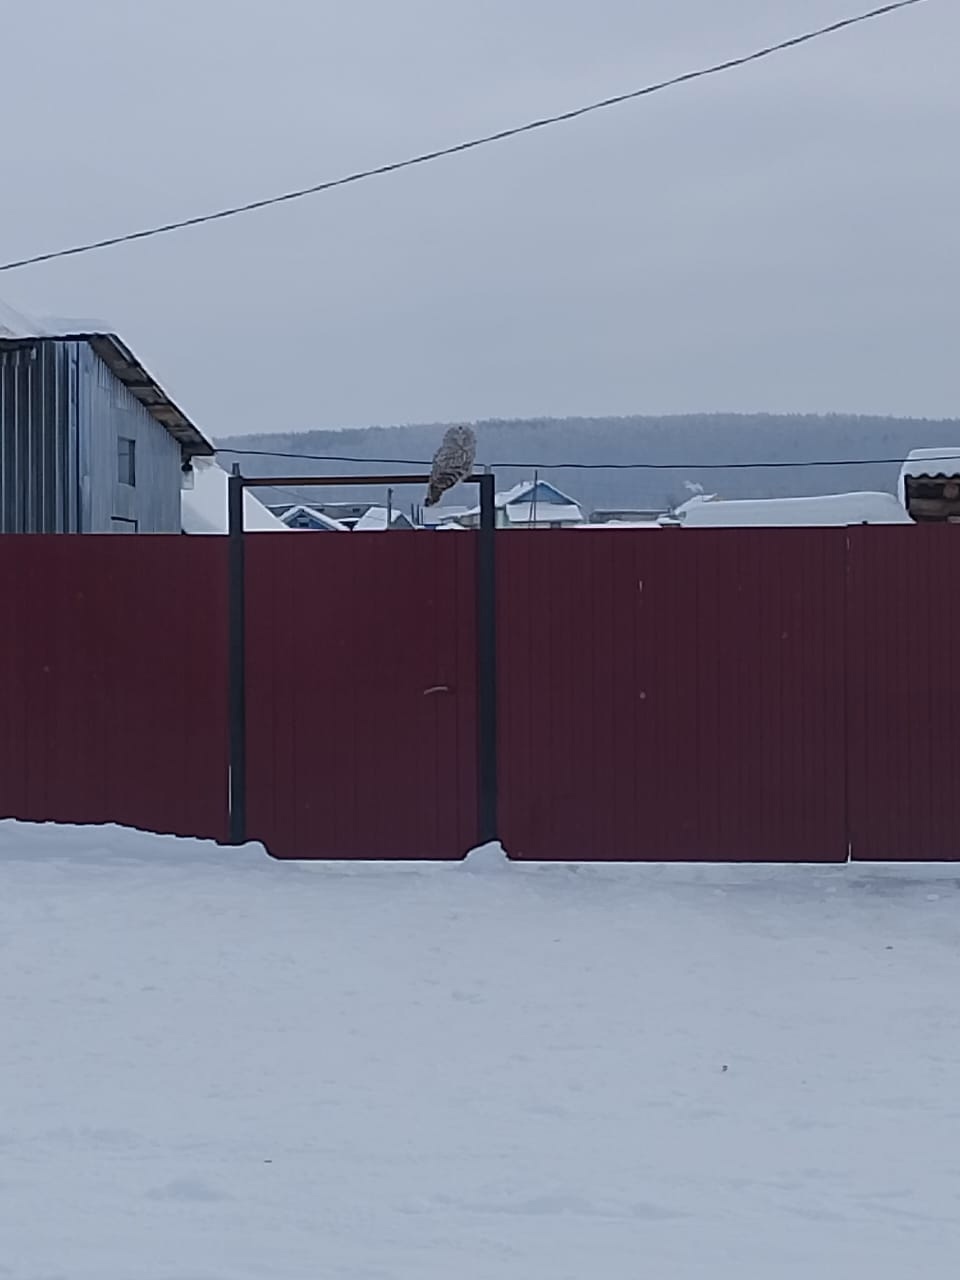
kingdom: Animalia
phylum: Chordata
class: Aves
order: Strigiformes
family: Strigidae
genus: Strix
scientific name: Strix uralensis
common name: Ural owl
